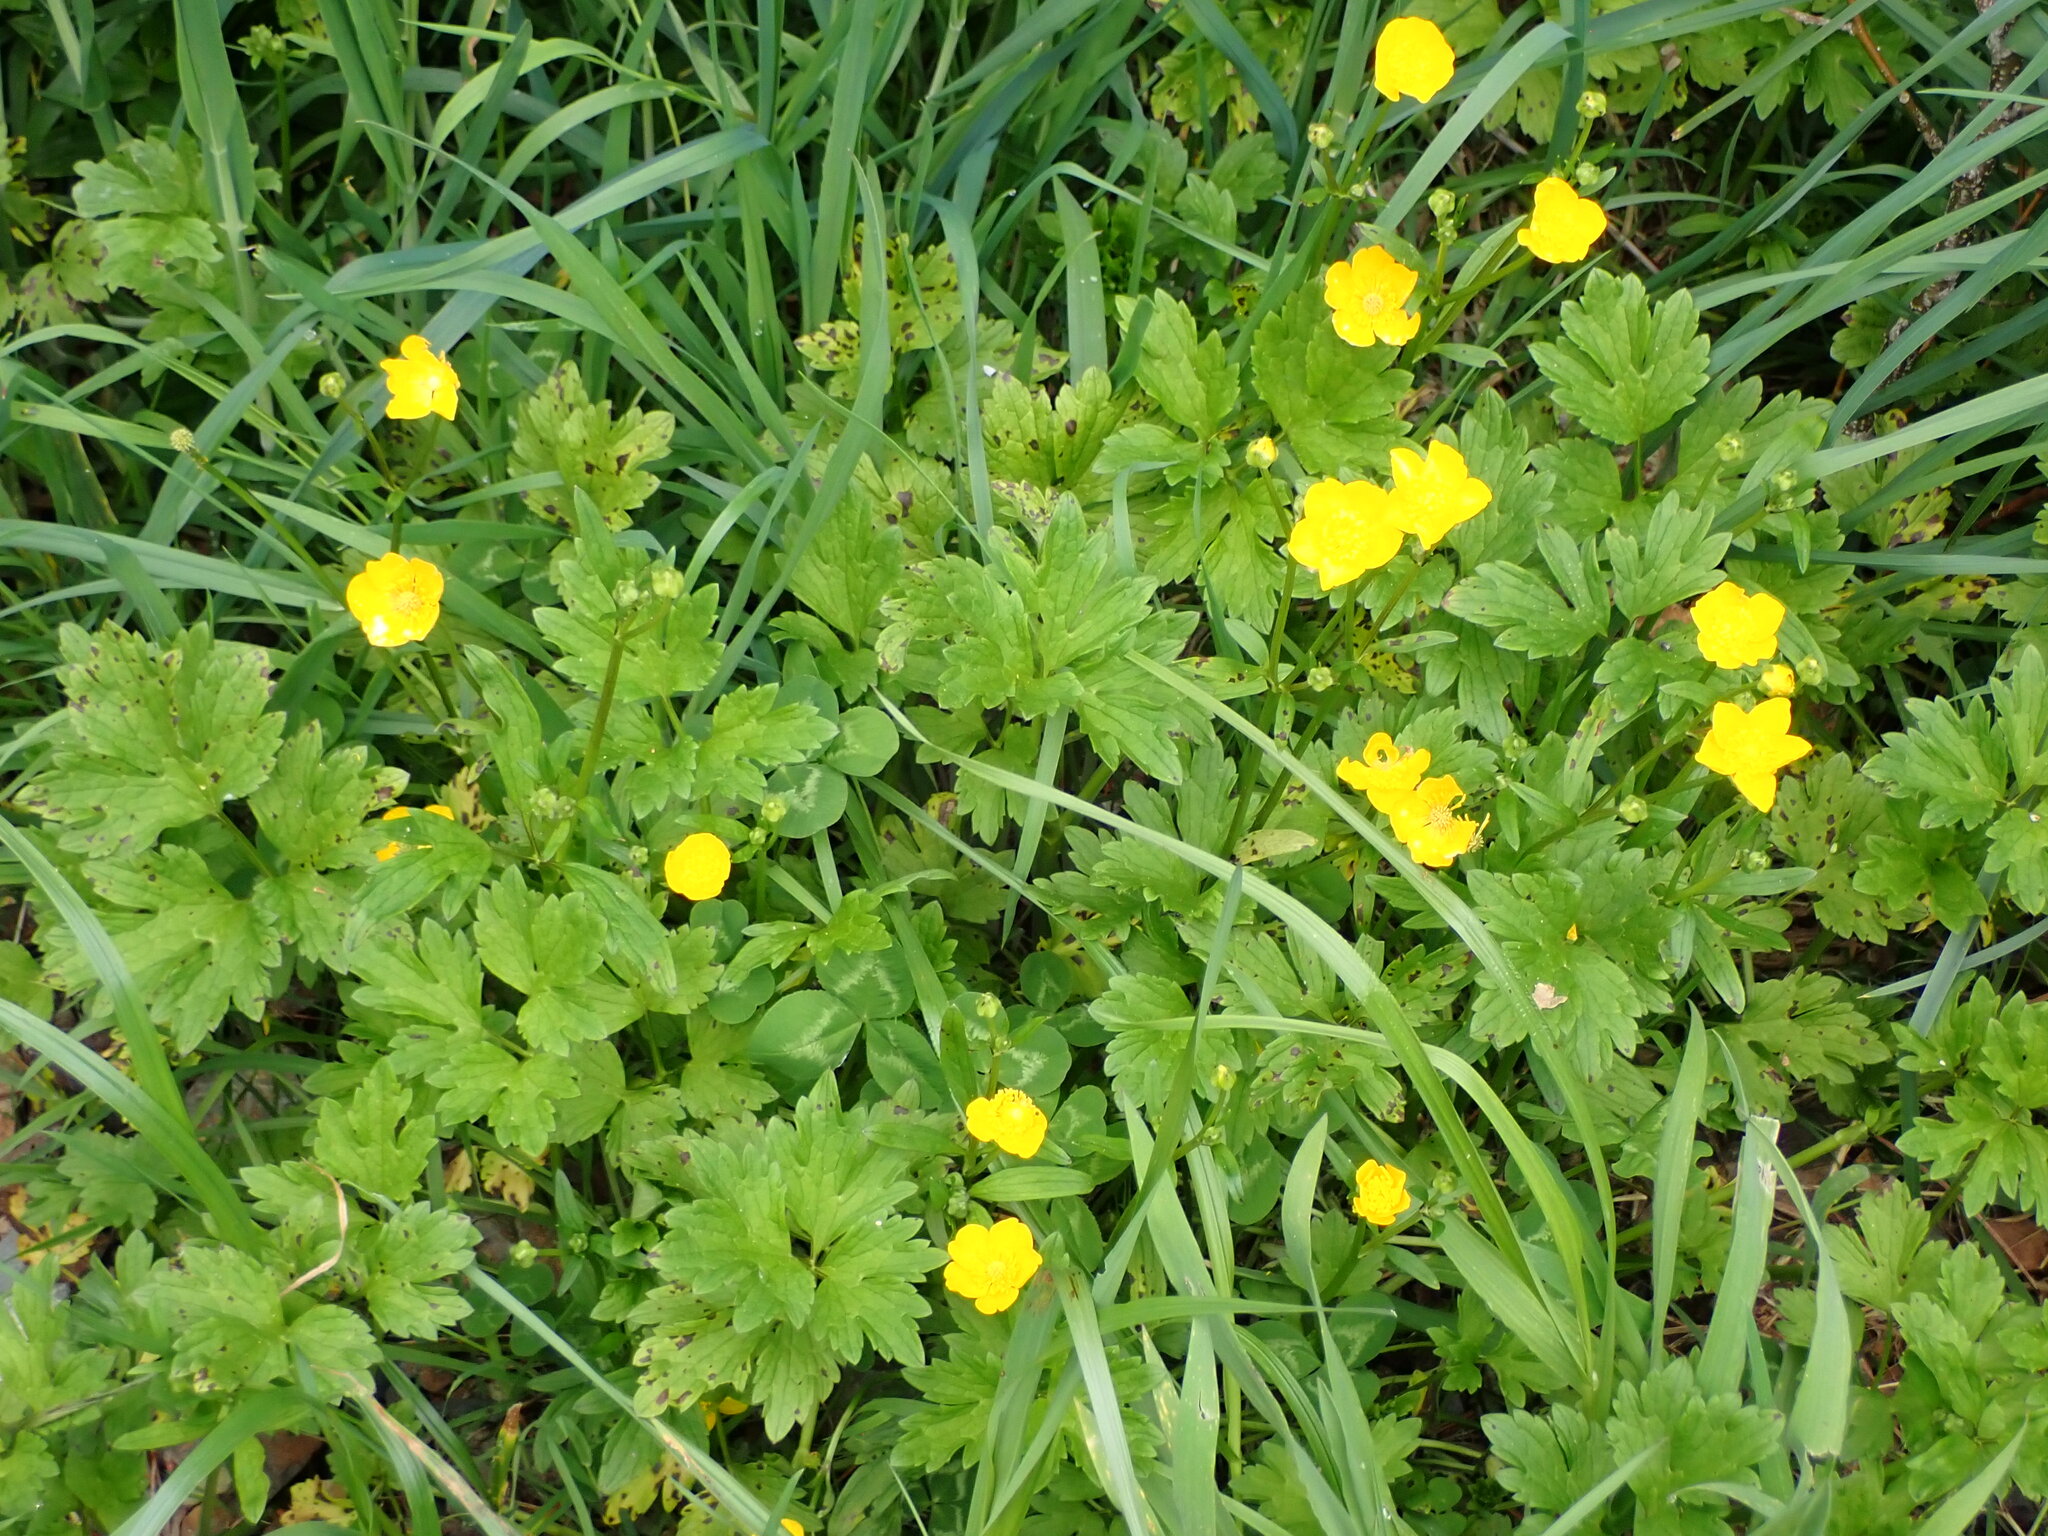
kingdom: Plantae
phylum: Tracheophyta
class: Magnoliopsida
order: Ranunculales
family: Ranunculaceae
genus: Ranunculus
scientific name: Ranunculus repens
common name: Creeping buttercup
